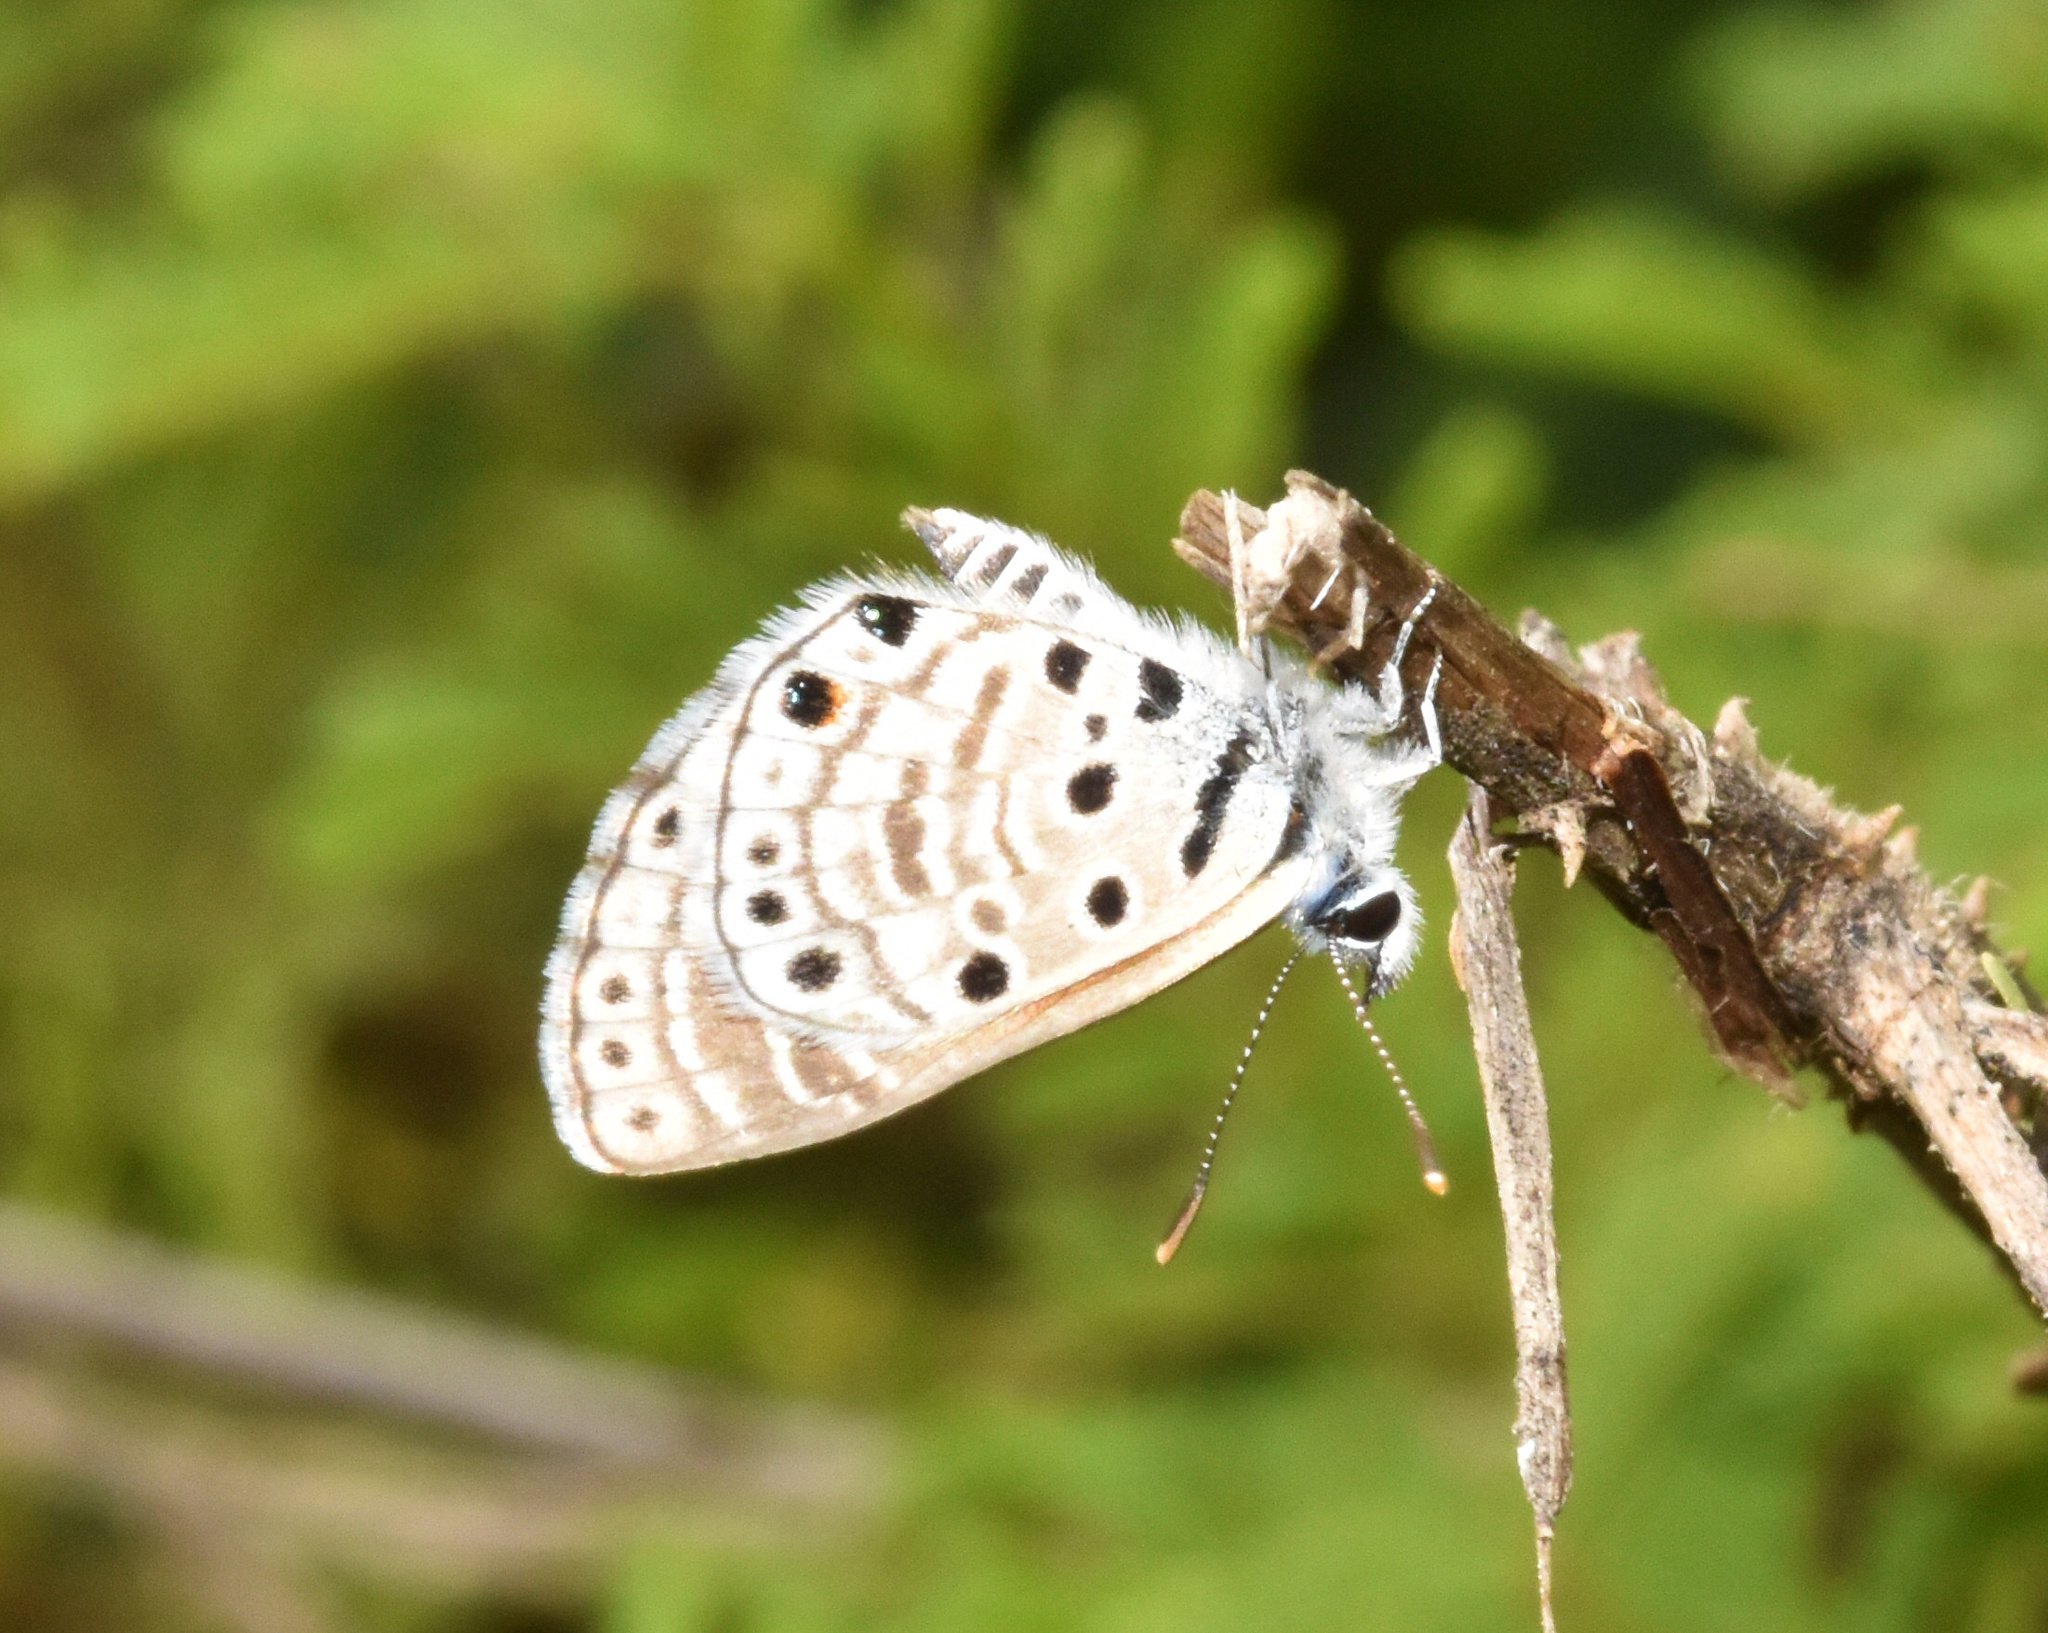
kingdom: Animalia
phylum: Arthropoda
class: Insecta
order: Lepidoptera
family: Lycaenidae
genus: Azanus
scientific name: Azanus jesous
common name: African babul blue
